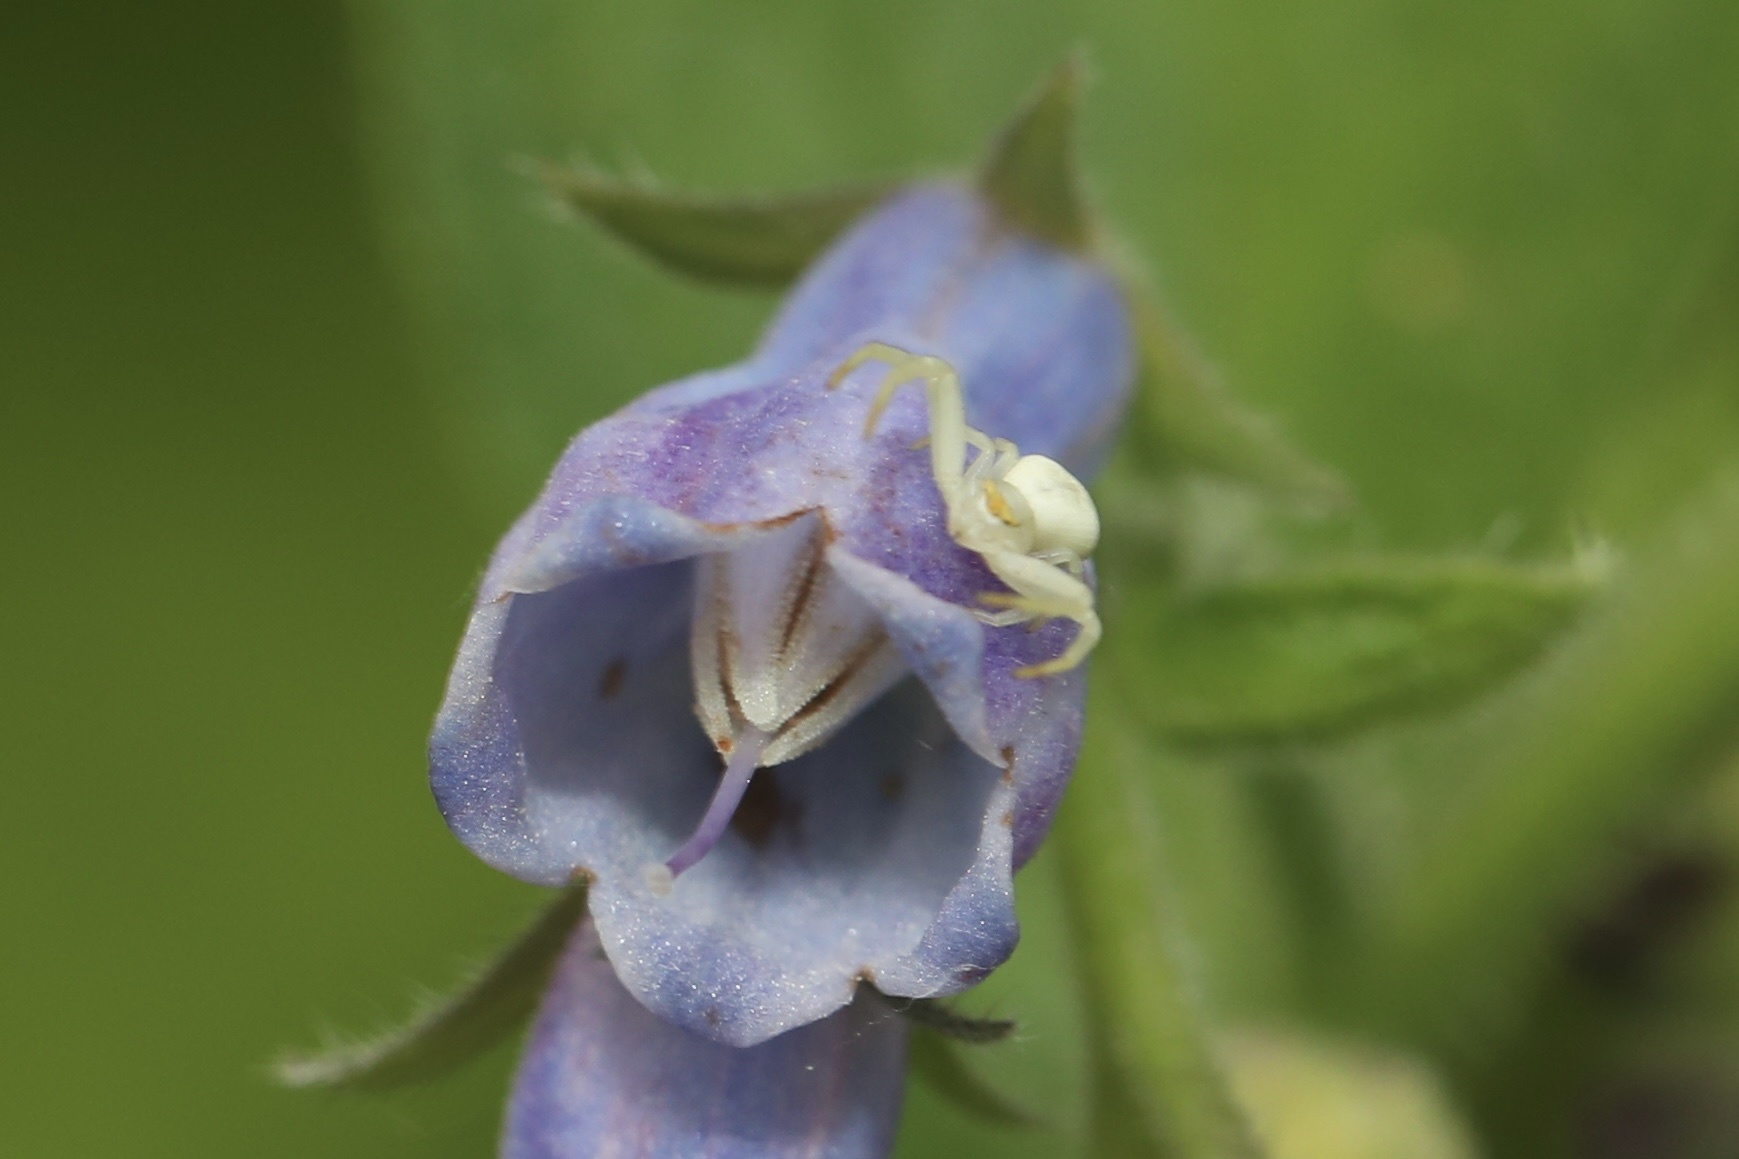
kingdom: Animalia
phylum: Arthropoda
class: Arachnida
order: Araneae
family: Thomisidae
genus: Misumena
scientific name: Misumena vatia
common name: Goldenrod crab spider
